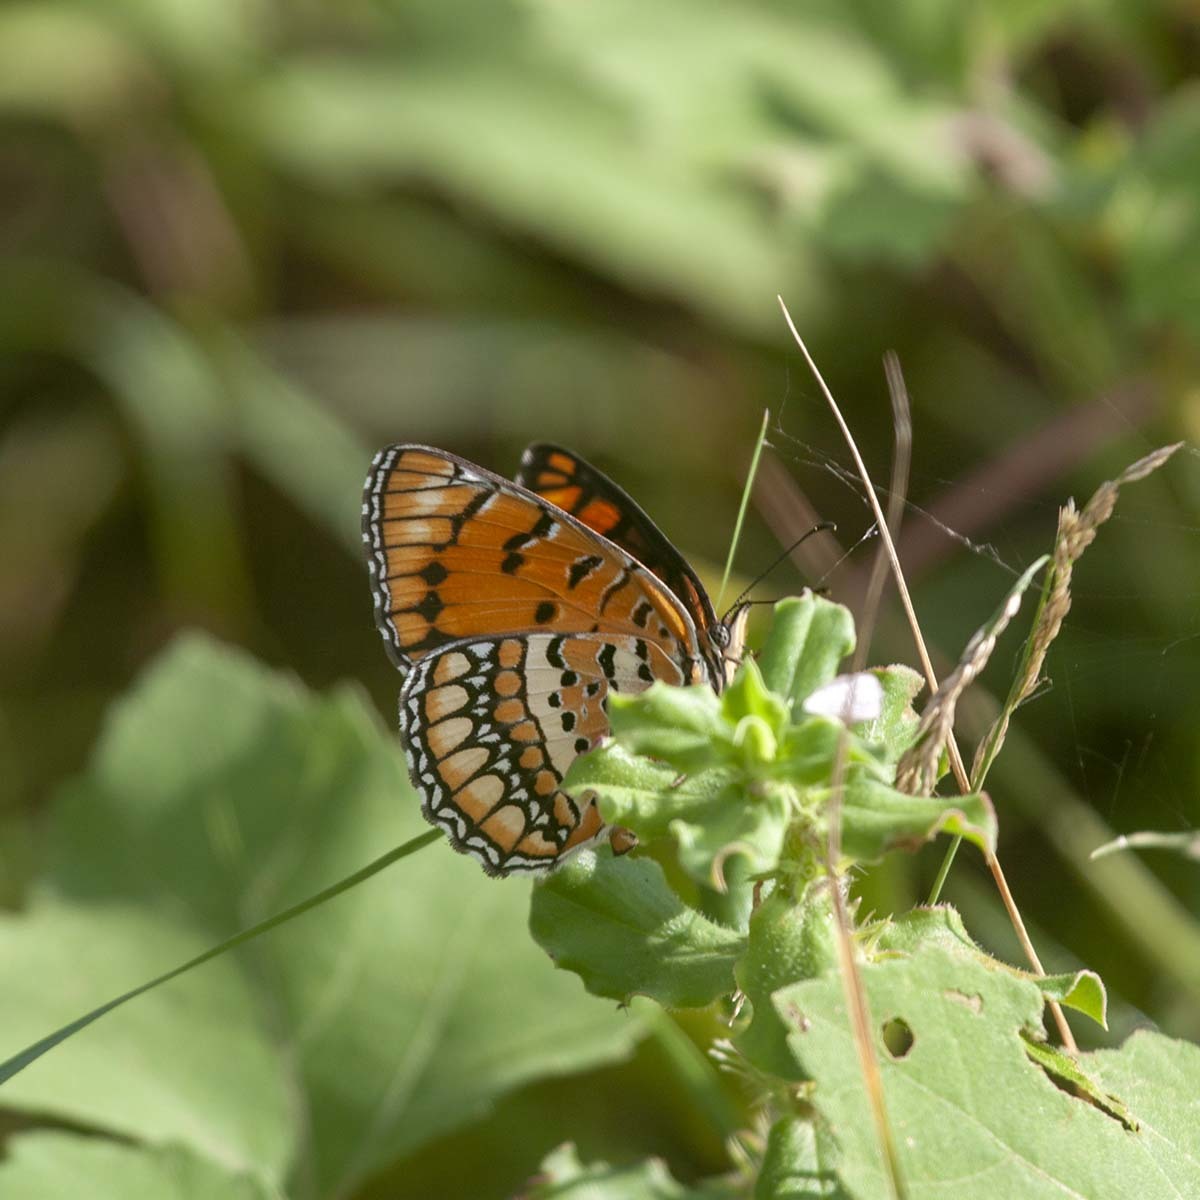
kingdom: Animalia
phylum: Arthropoda
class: Insecta
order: Lepidoptera
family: Nymphalidae
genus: Byblia
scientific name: Byblia ilithyia
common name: Spotted joker
